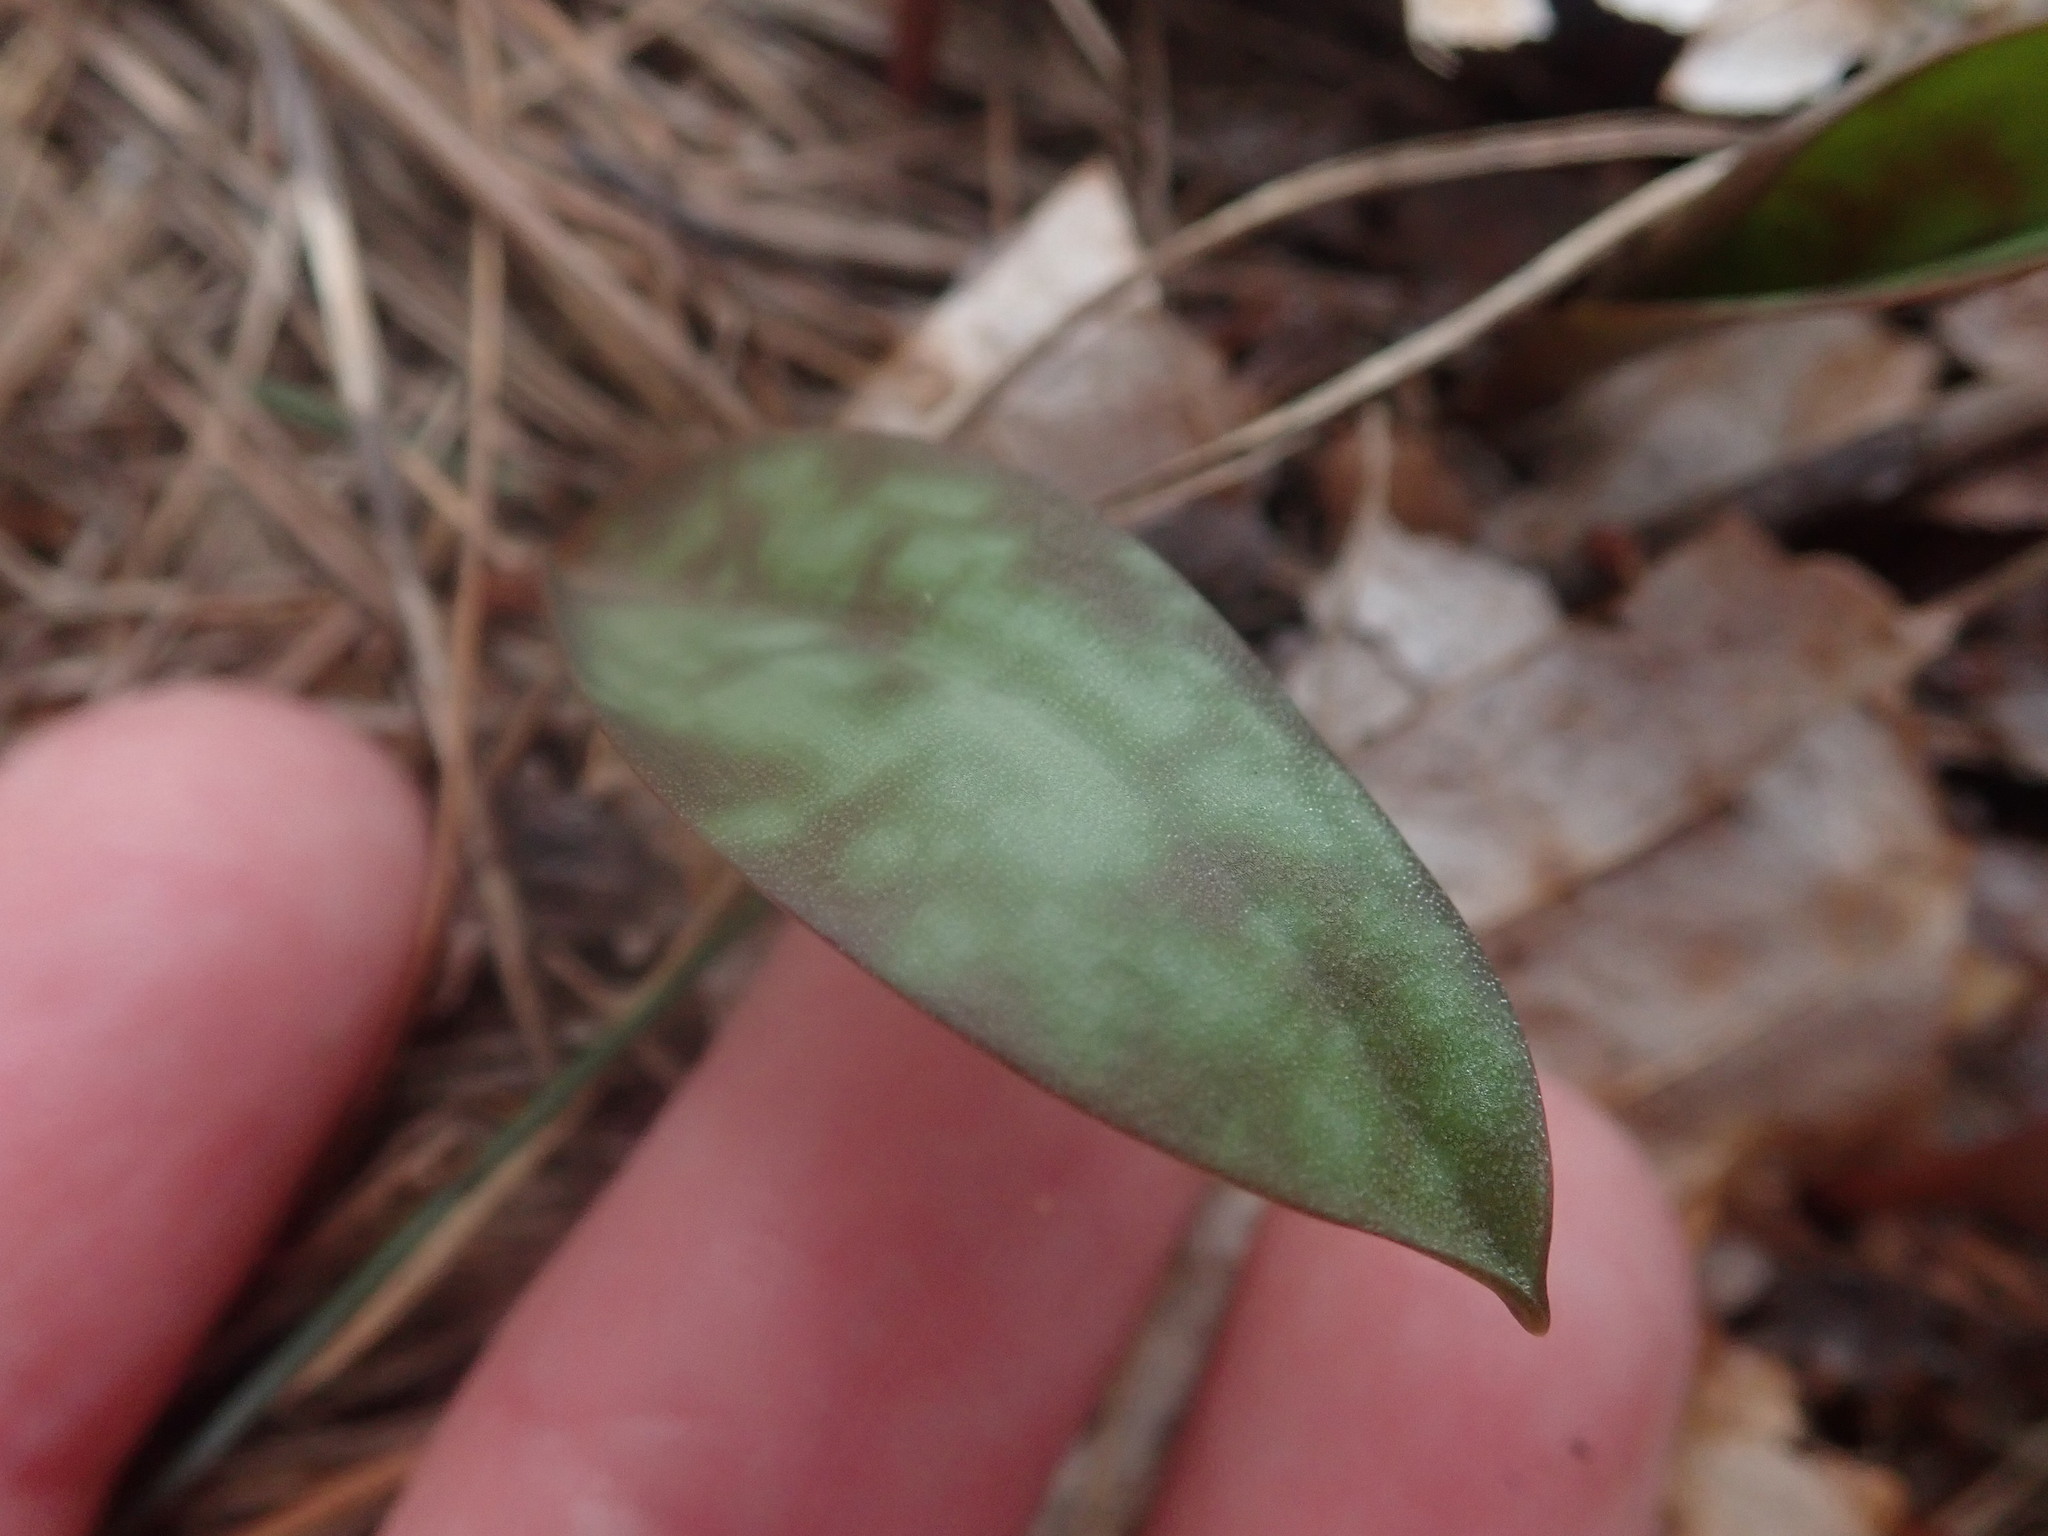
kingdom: Plantae
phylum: Tracheophyta
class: Liliopsida
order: Liliales
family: Liliaceae
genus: Erythronium
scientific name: Erythronium
